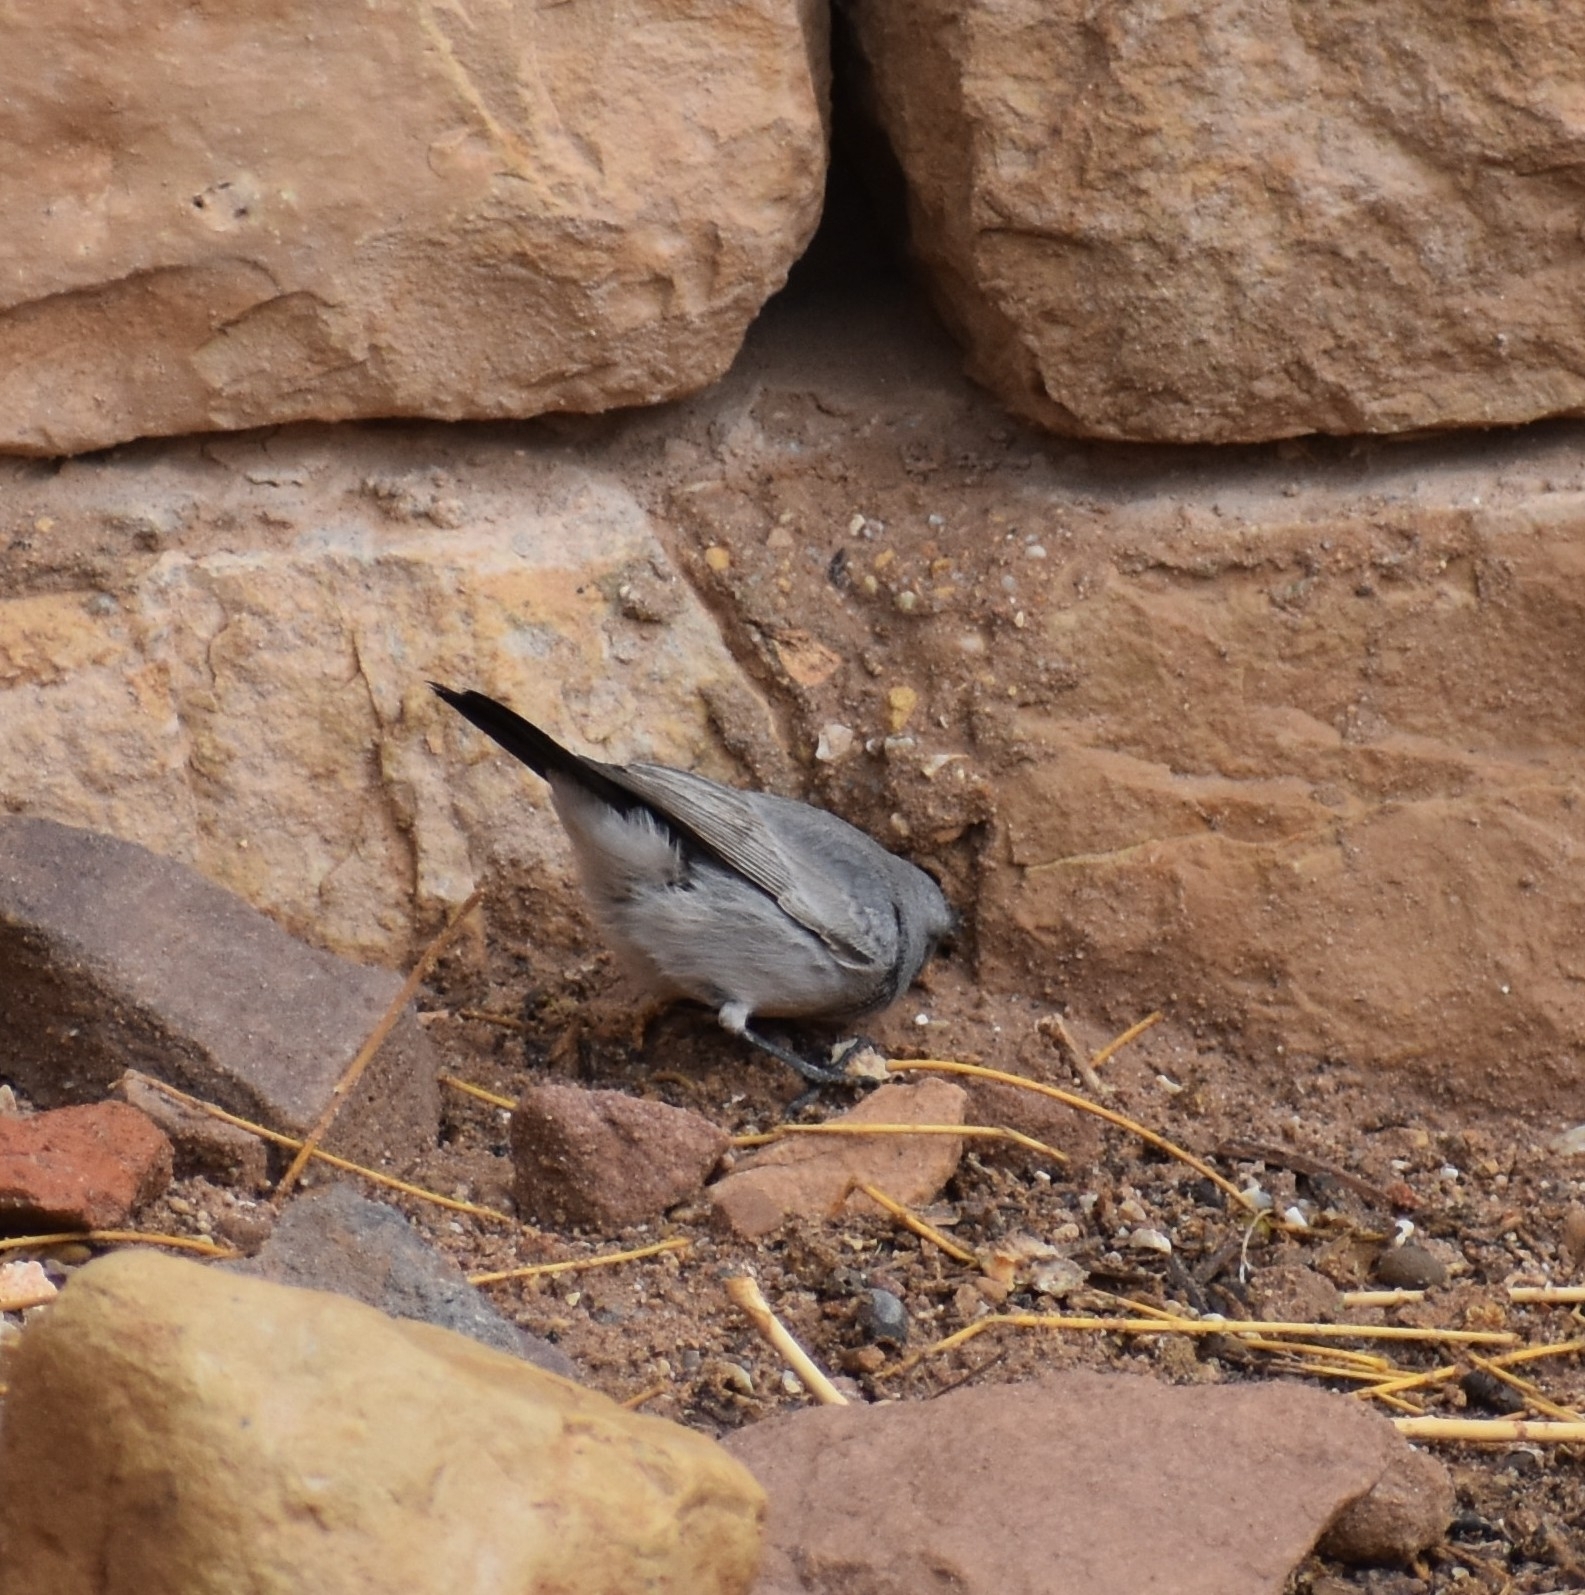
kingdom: Animalia
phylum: Chordata
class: Aves
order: Passeriformes
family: Muscicapidae
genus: Oenanthe
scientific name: Oenanthe melanura
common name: Blackstart
